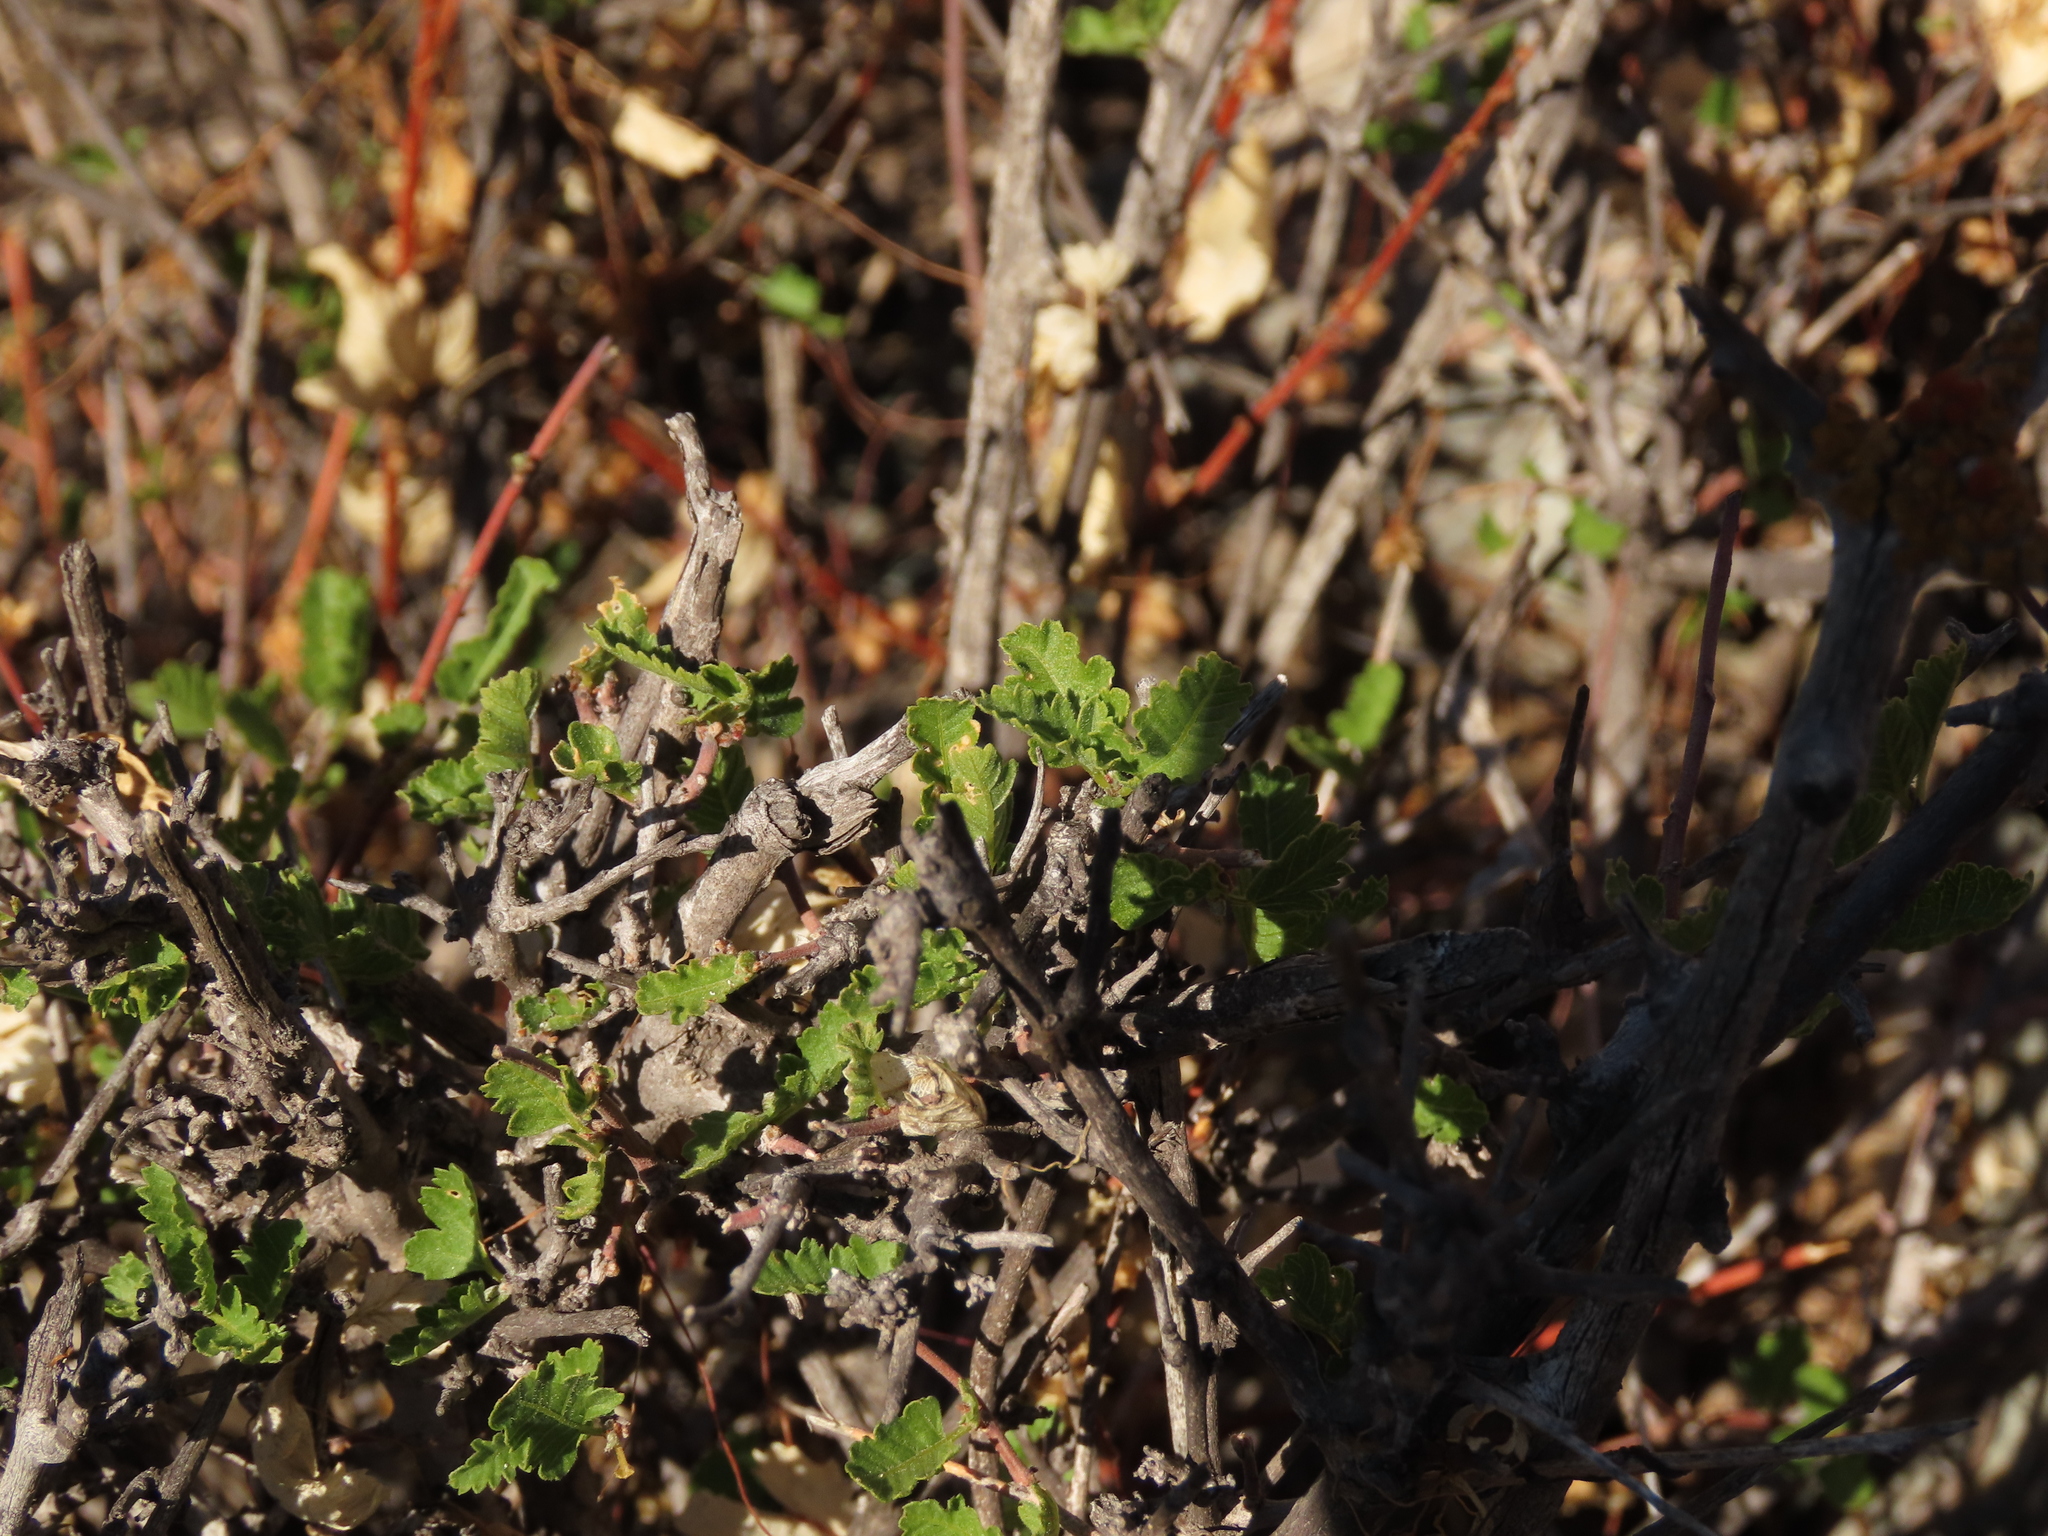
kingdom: Plantae
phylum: Tracheophyta
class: Magnoliopsida
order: Sapindales
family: Sapindaceae
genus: Bridgesia
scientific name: Bridgesia incisifolia
